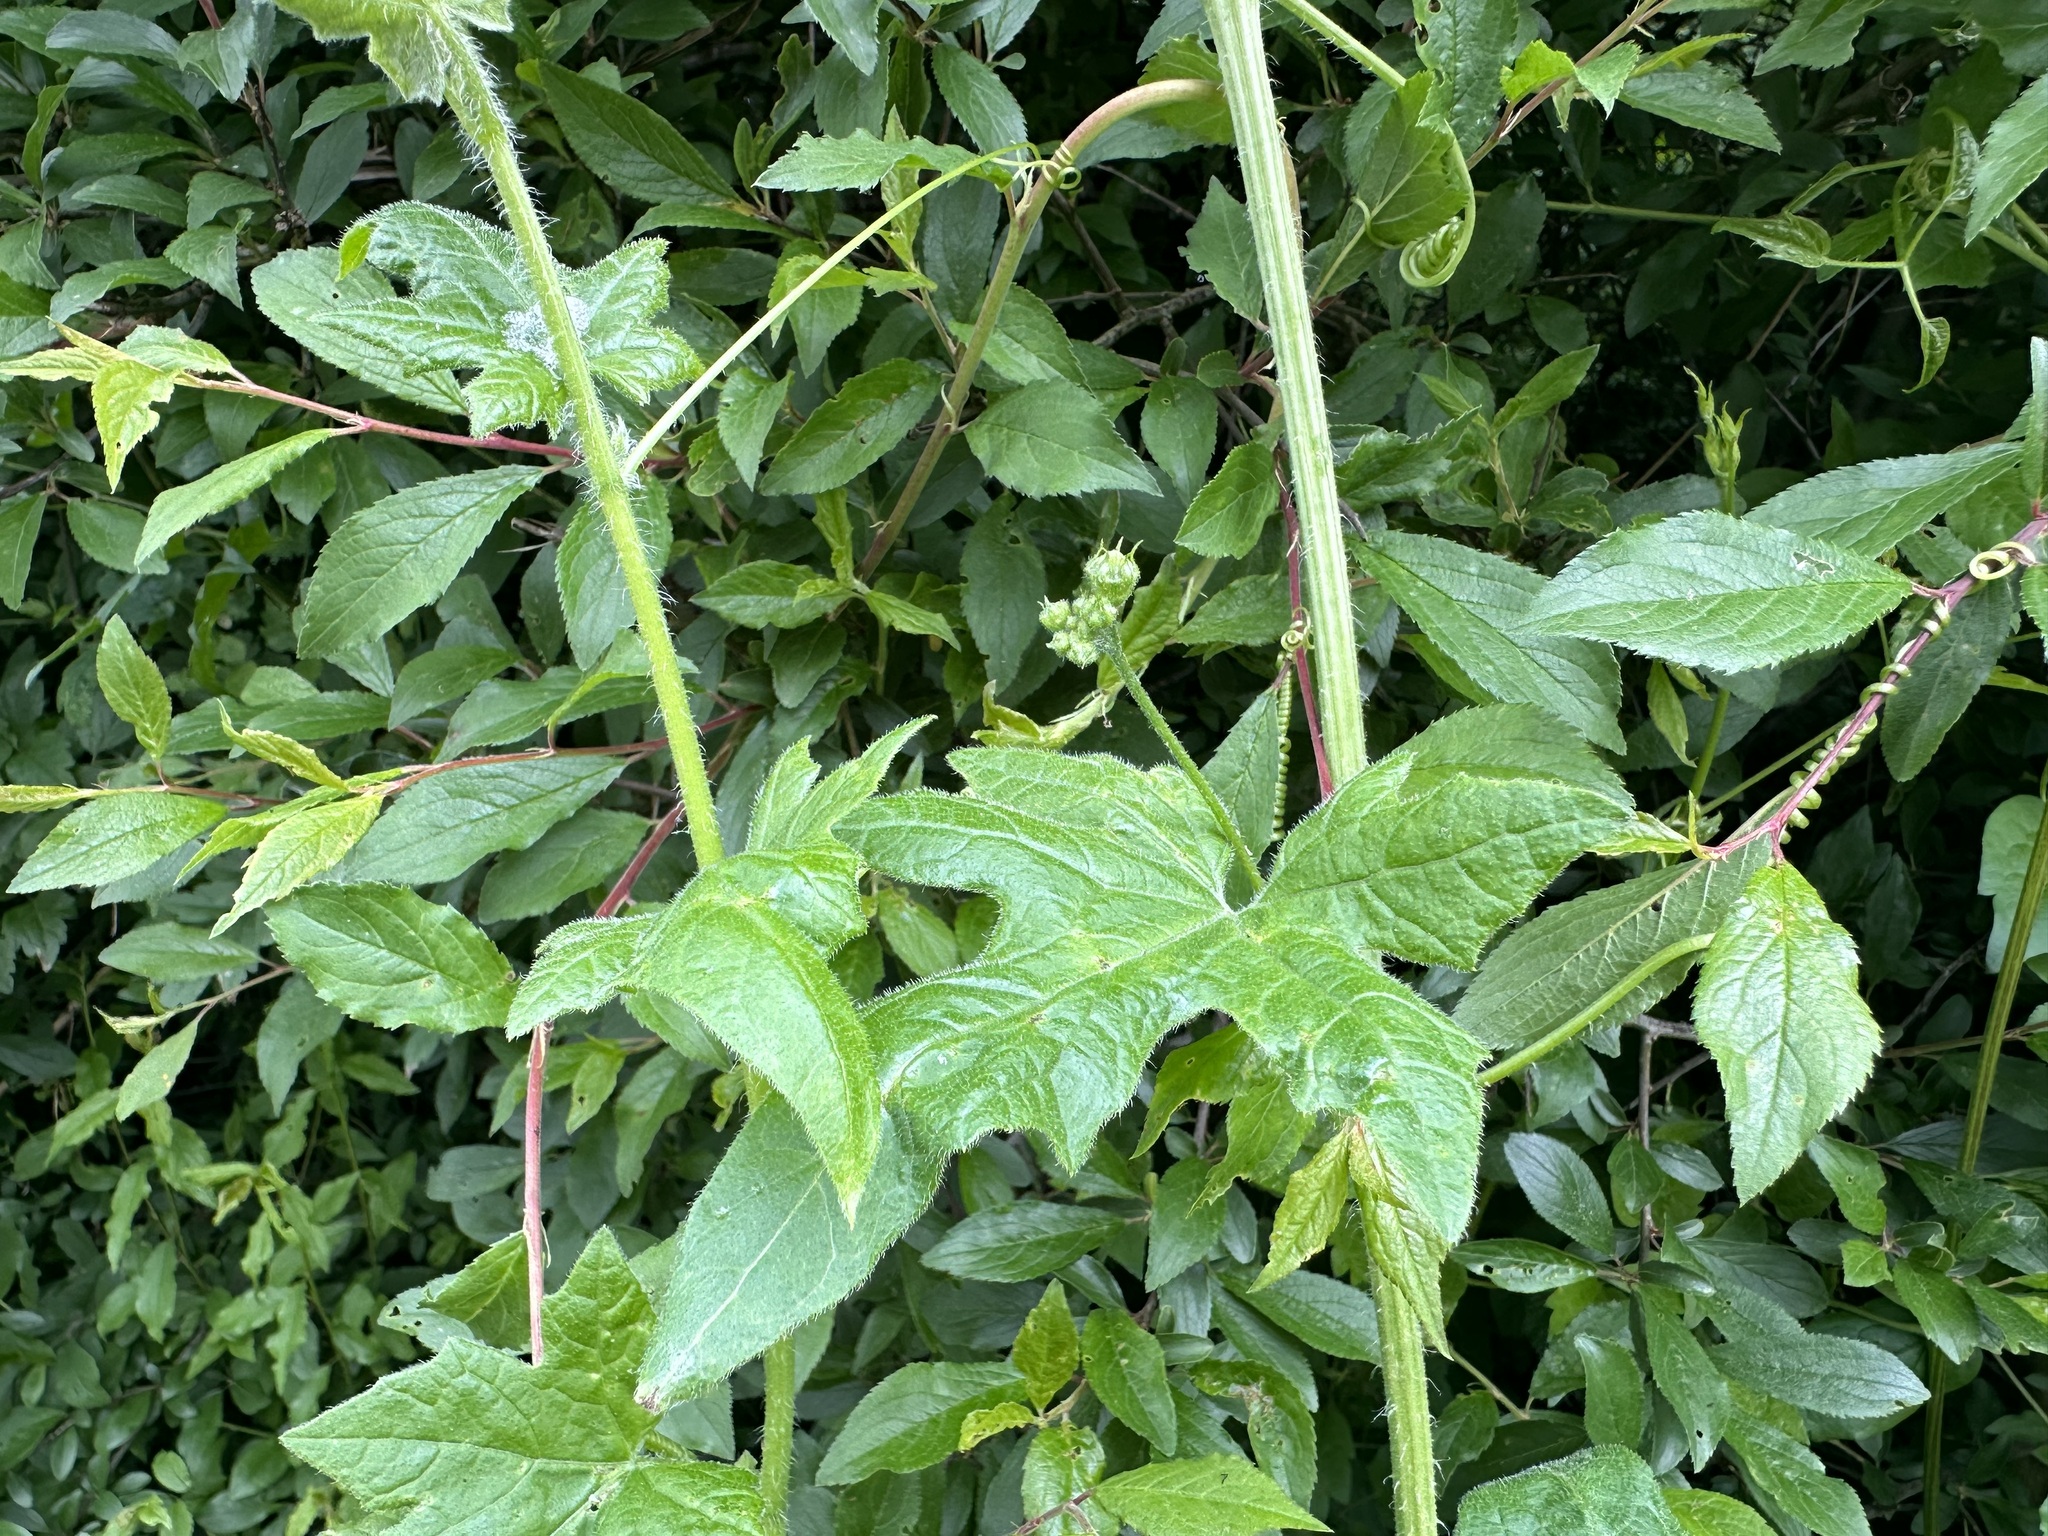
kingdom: Plantae
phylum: Tracheophyta
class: Magnoliopsida
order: Cucurbitales
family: Cucurbitaceae
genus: Bryonia
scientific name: Bryonia cretica
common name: Cretan bryony
